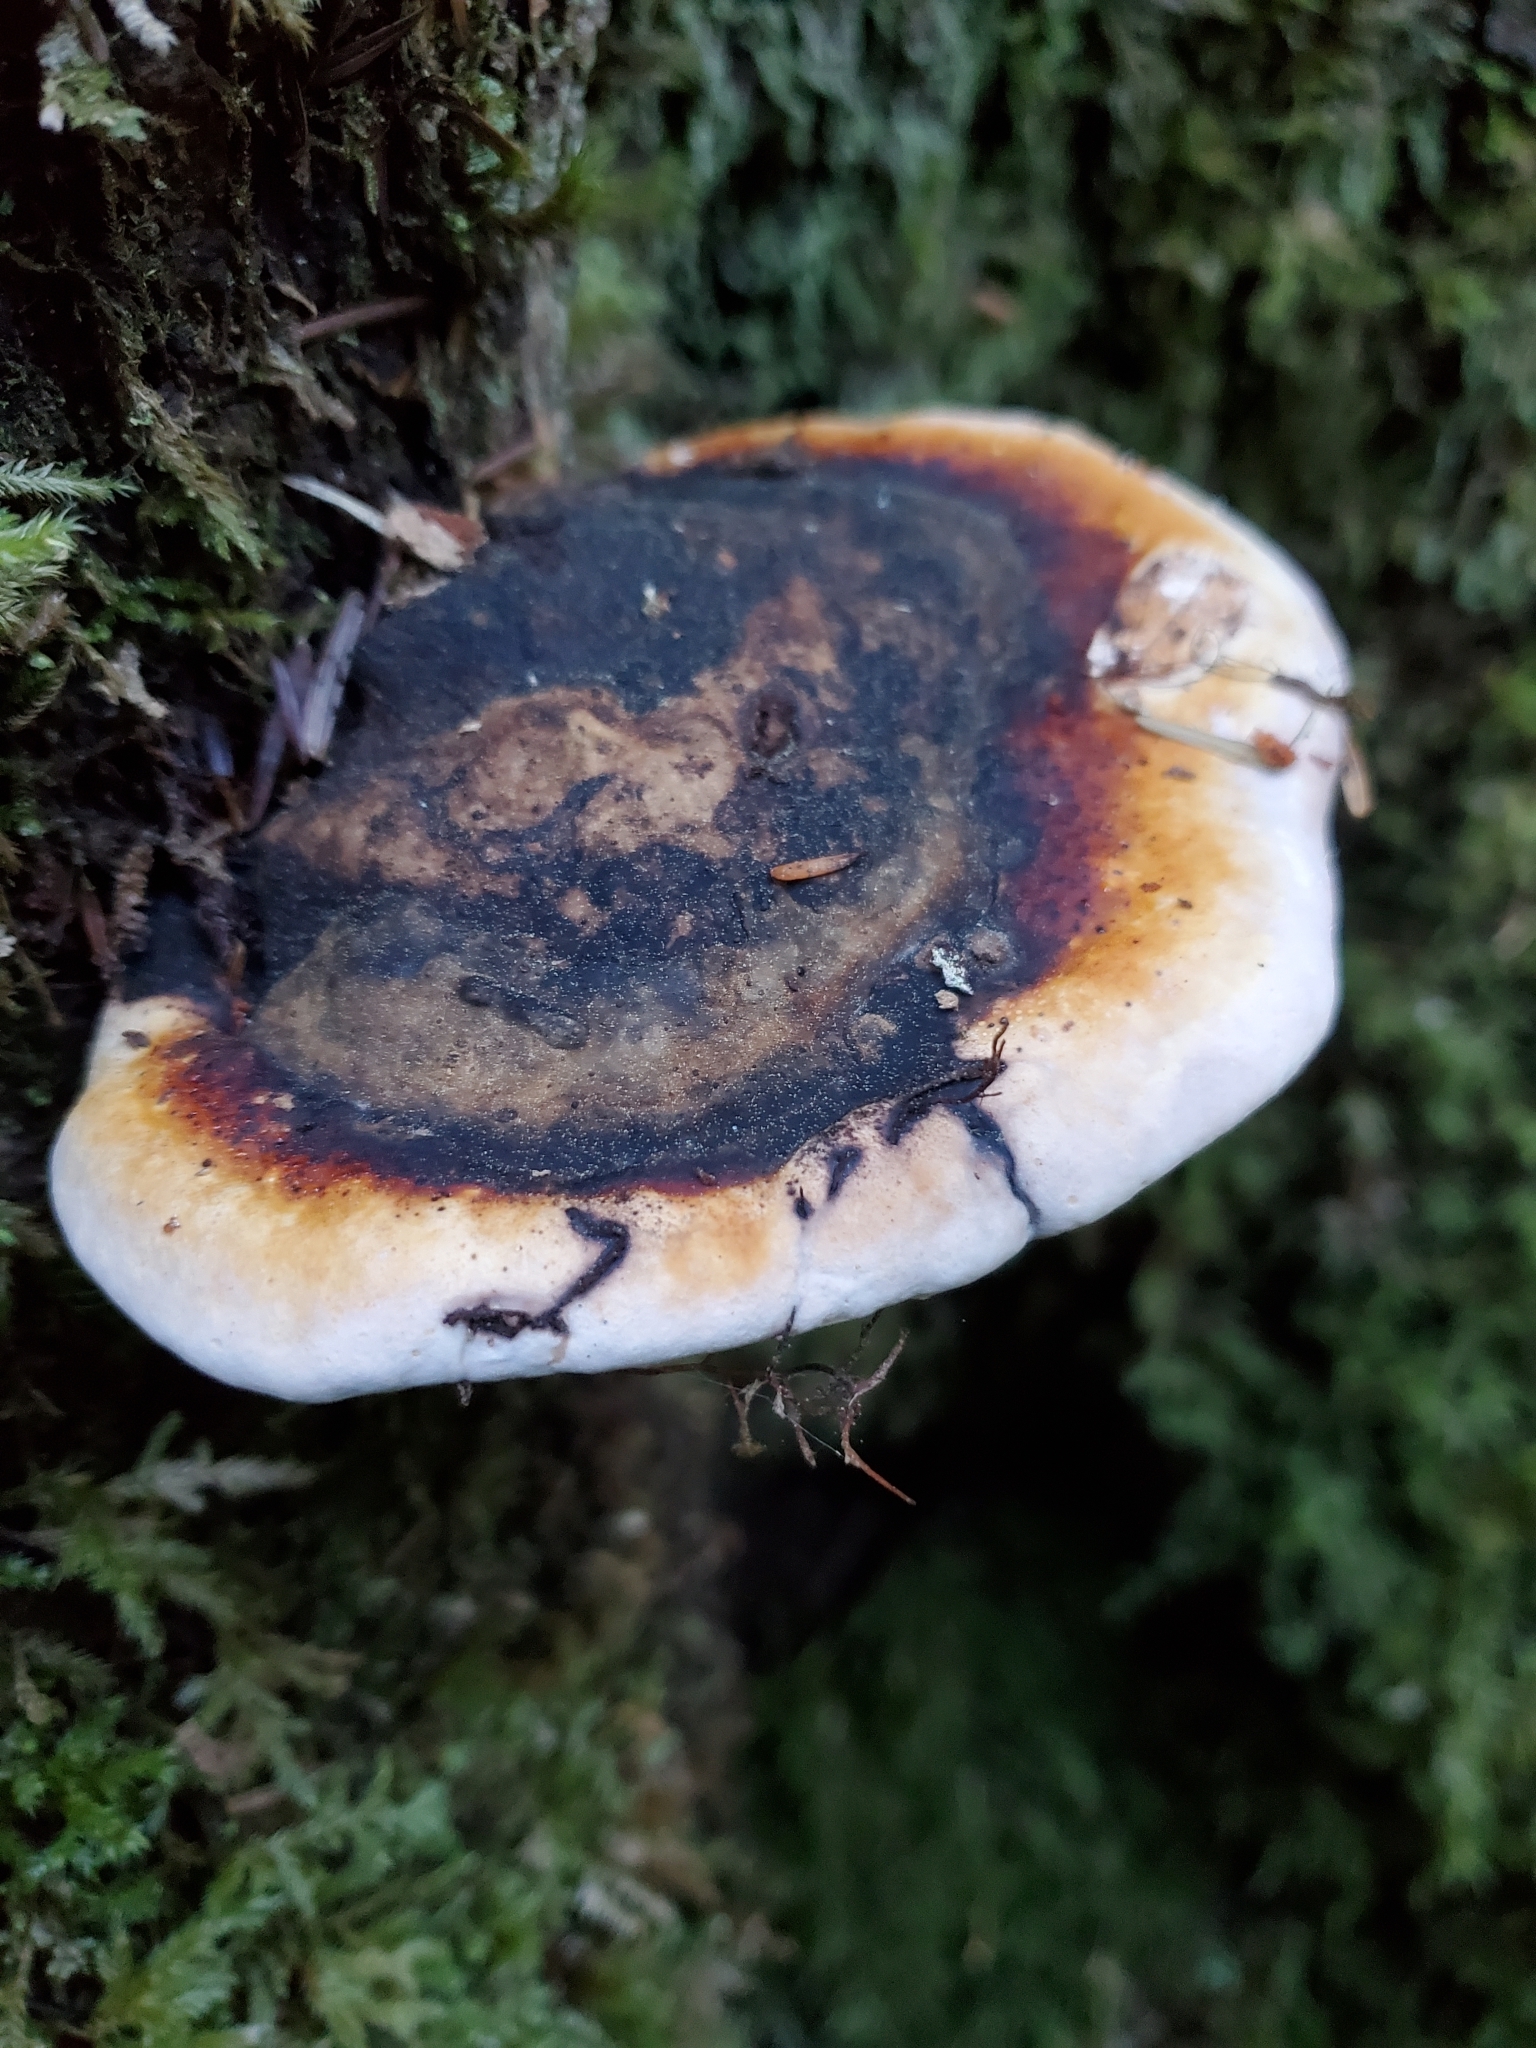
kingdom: Fungi
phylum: Basidiomycota
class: Agaricomycetes
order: Polyporales
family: Fomitopsidaceae
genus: Fomitopsis
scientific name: Fomitopsis mounceae
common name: Northern red belt
